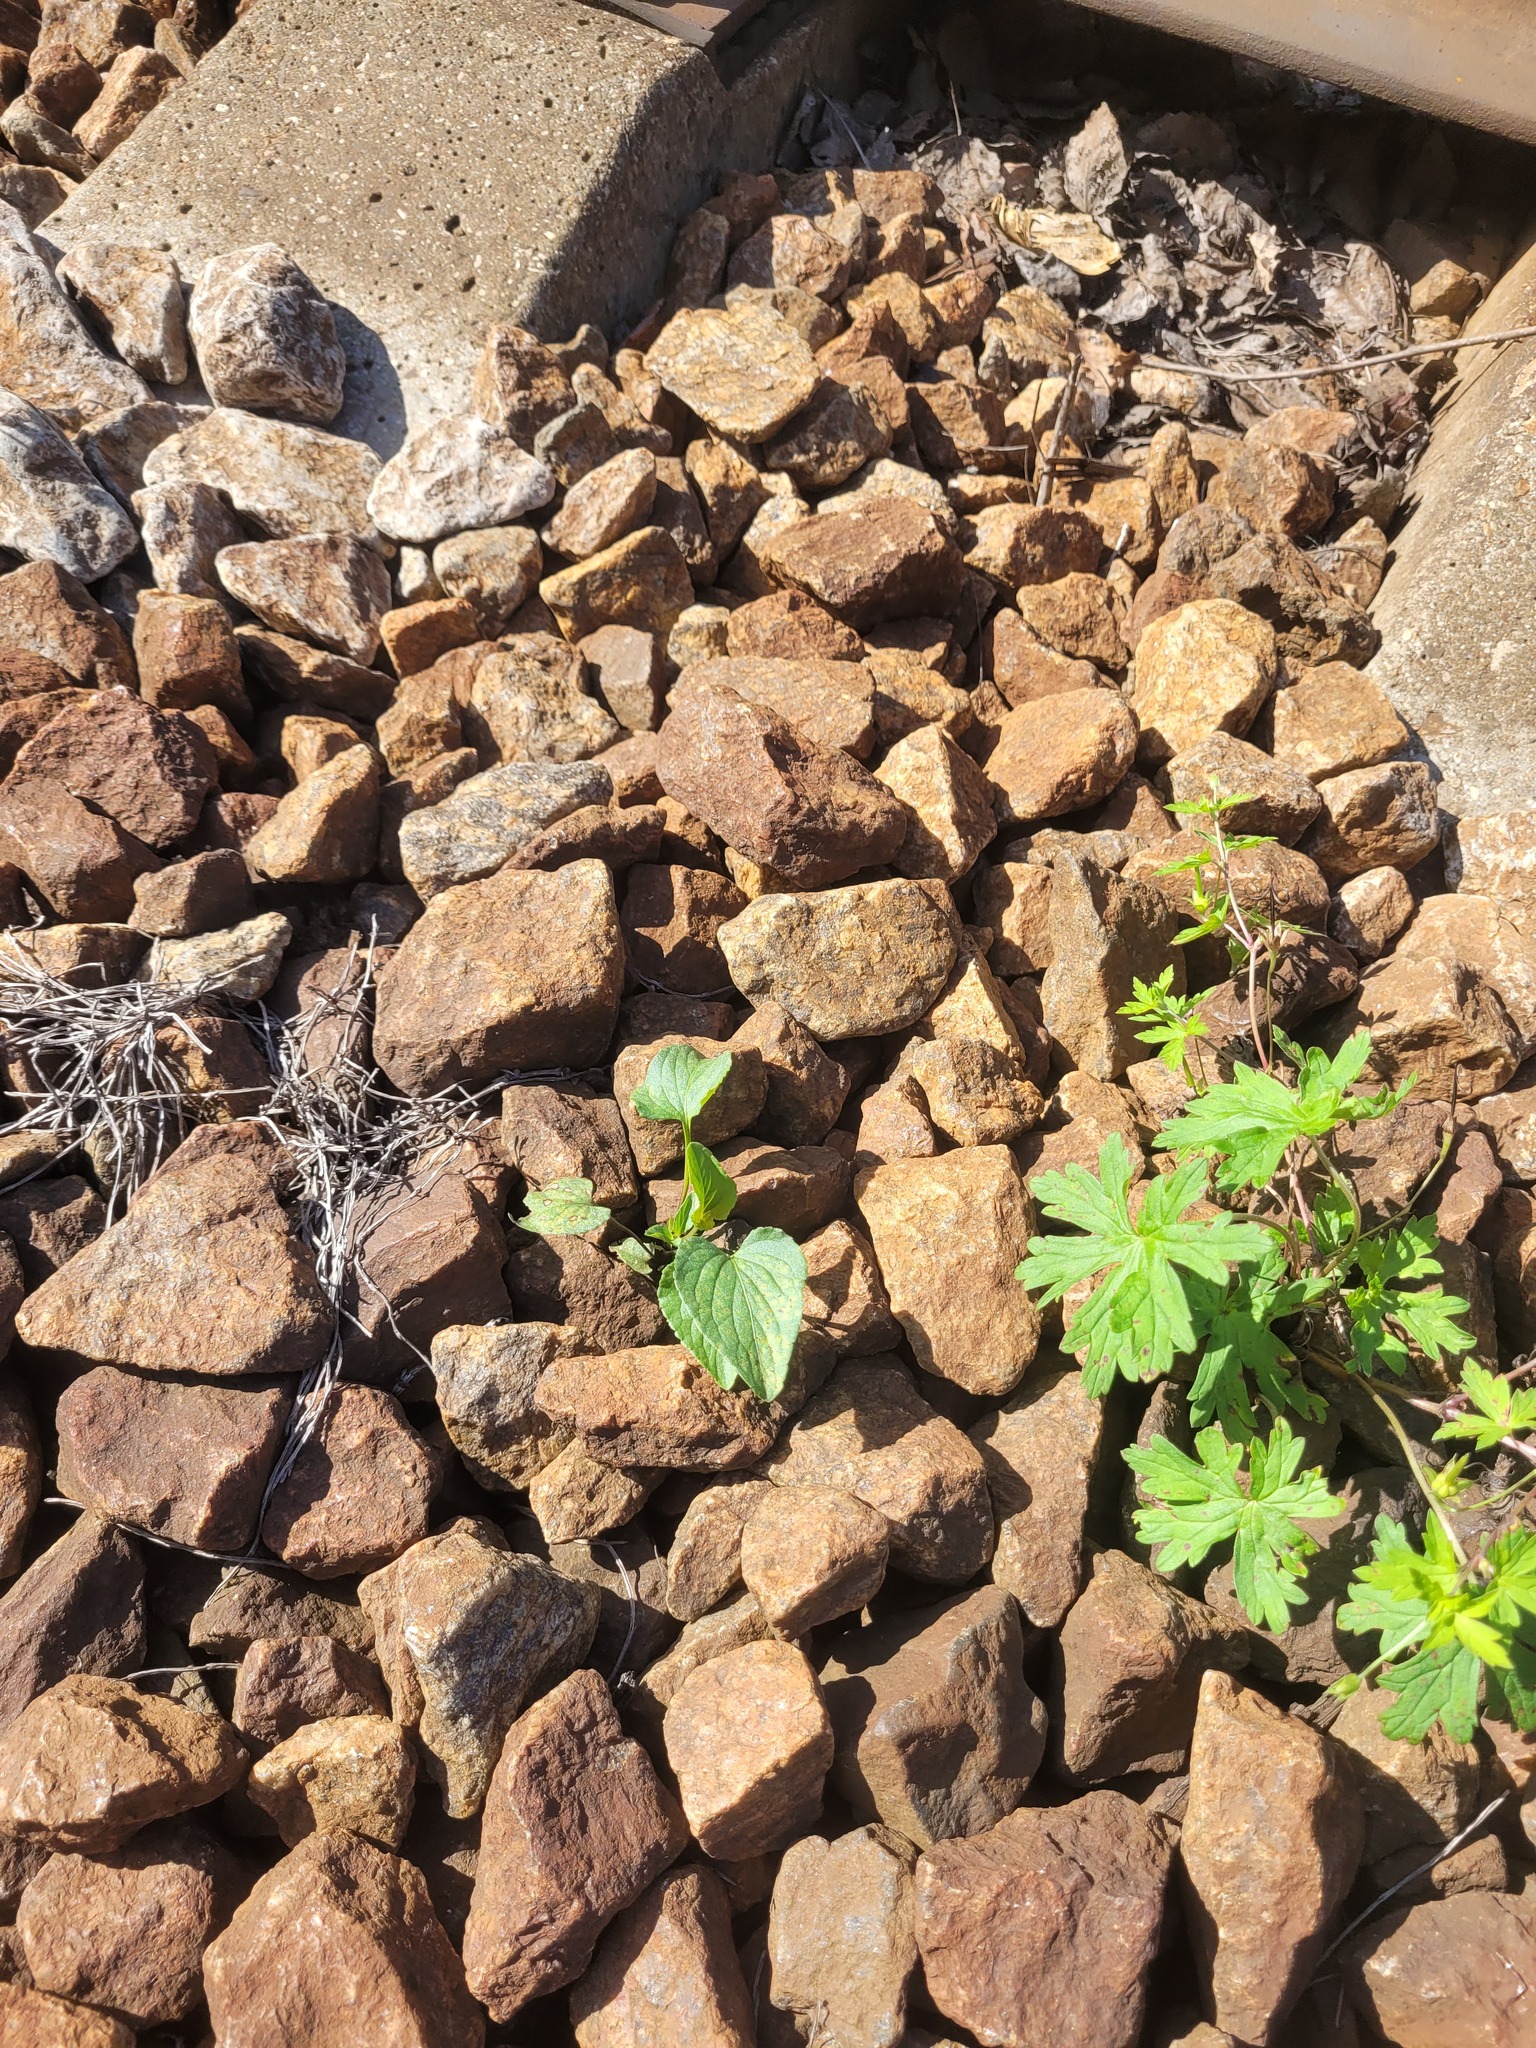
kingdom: Plantae
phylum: Tracheophyta
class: Magnoliopsida
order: Malpighiales
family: Violaceae
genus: Viola
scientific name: Viola canina
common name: Heath dog-violet
